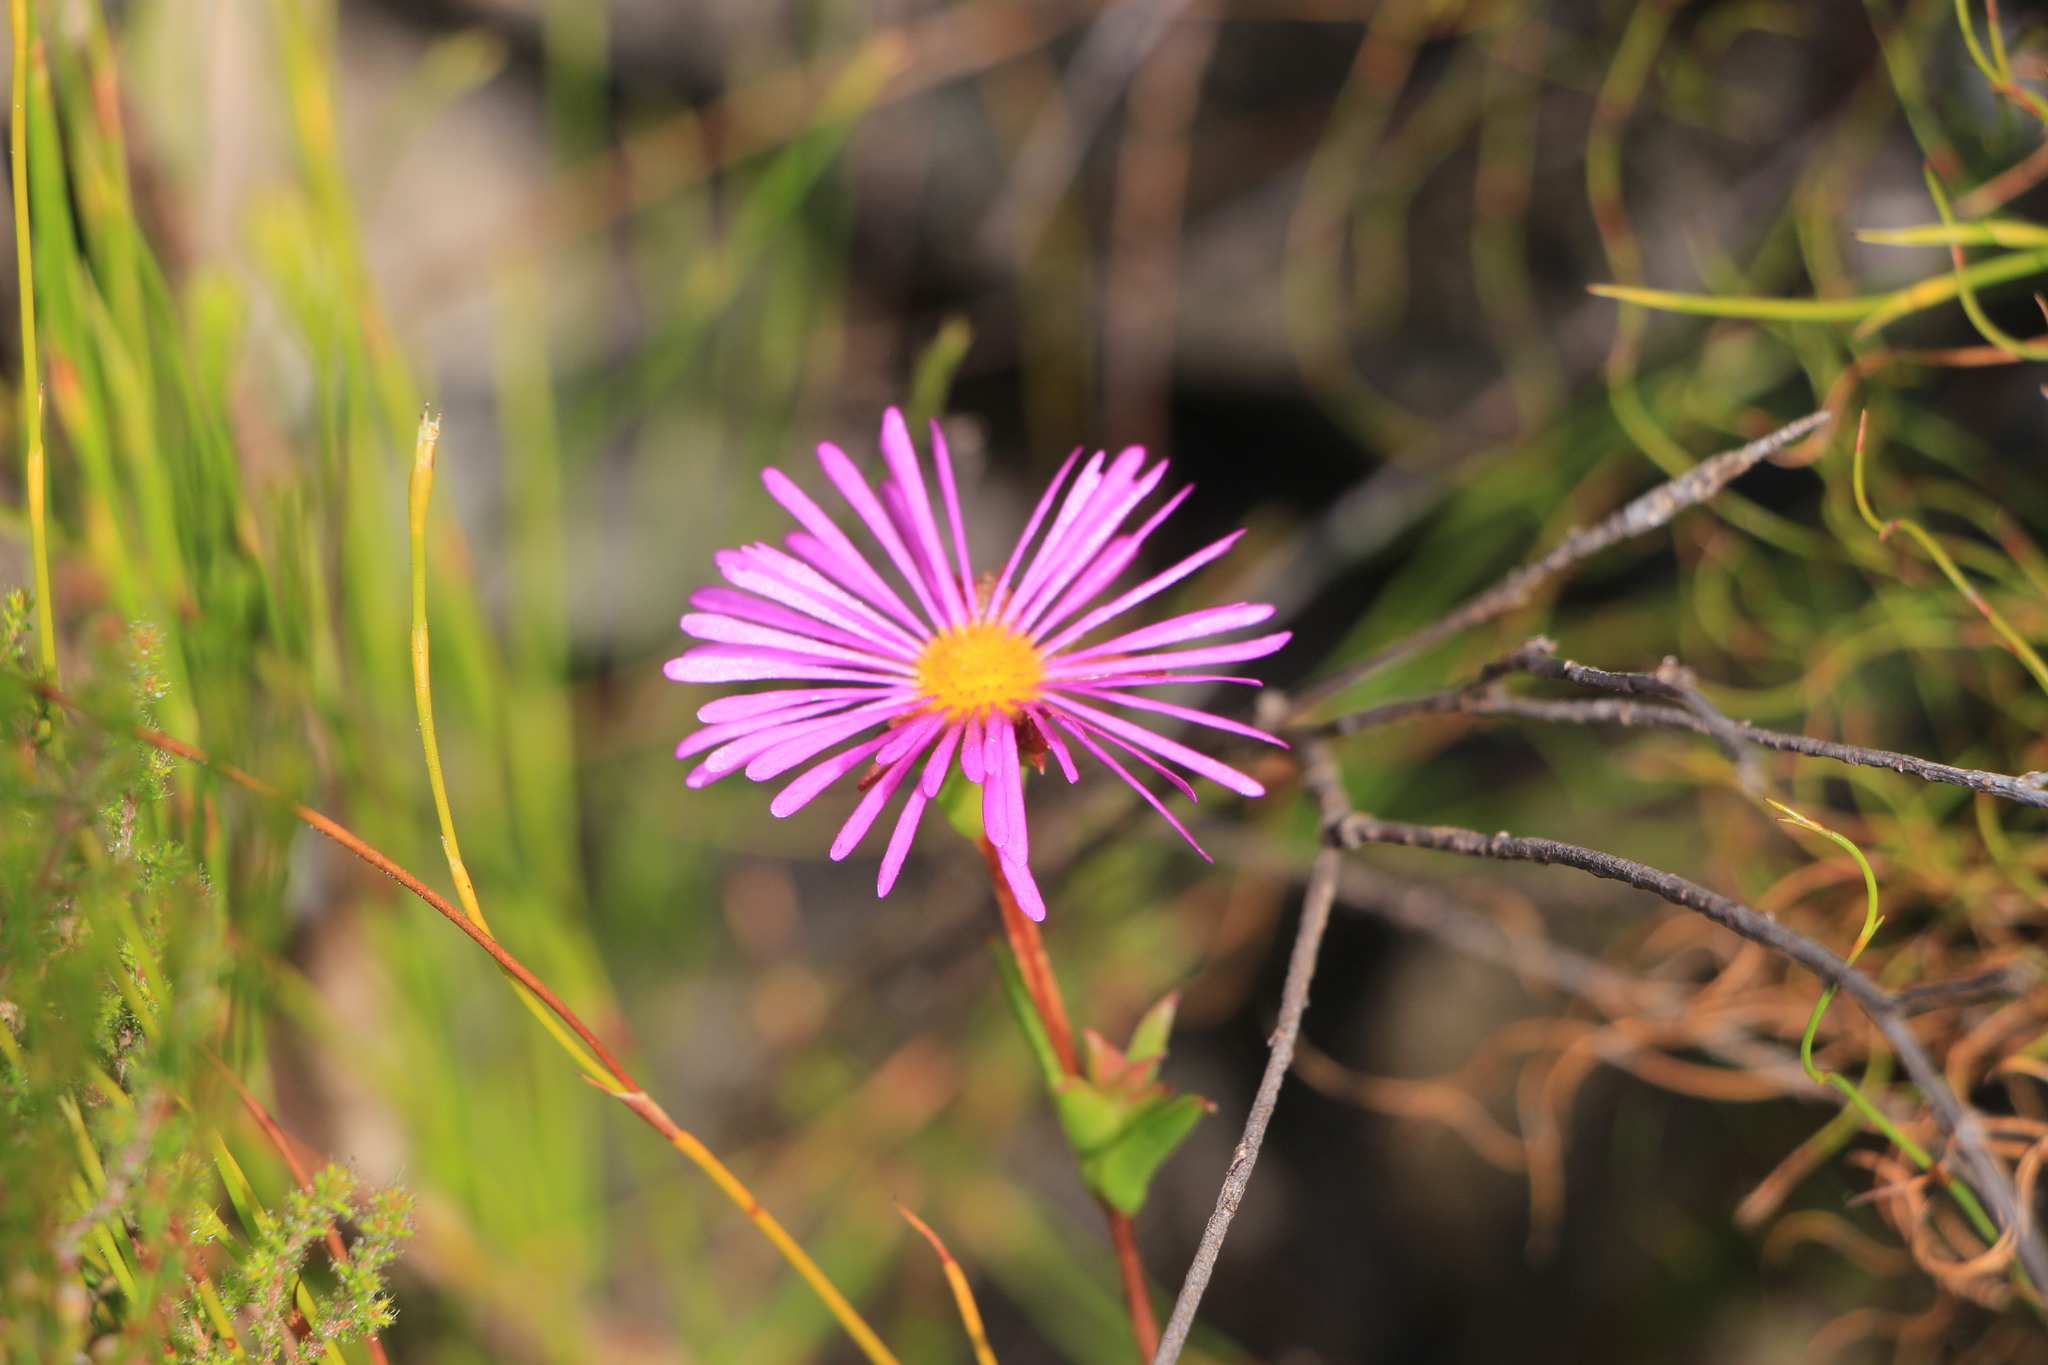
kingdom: Plantae
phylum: Tracheophyta
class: Magnoliopsida
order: Caryophyllales
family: Aizoaceae
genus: Erepsia
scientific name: Erepsia anceps
